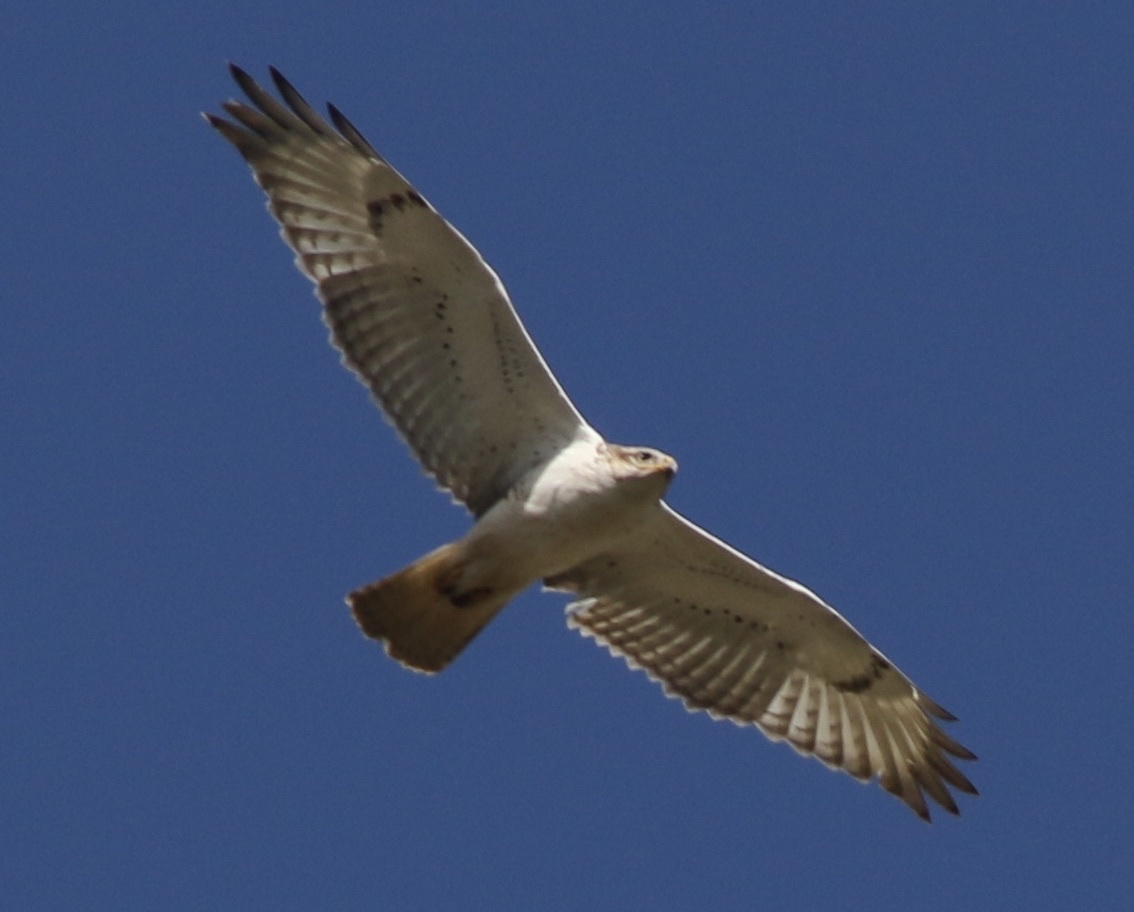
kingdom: Animalia
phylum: Chordata
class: Aves
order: Accipitriformes
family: Accipitridae
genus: Buteo
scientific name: Buteo regalis
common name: Ferruginous hawk
